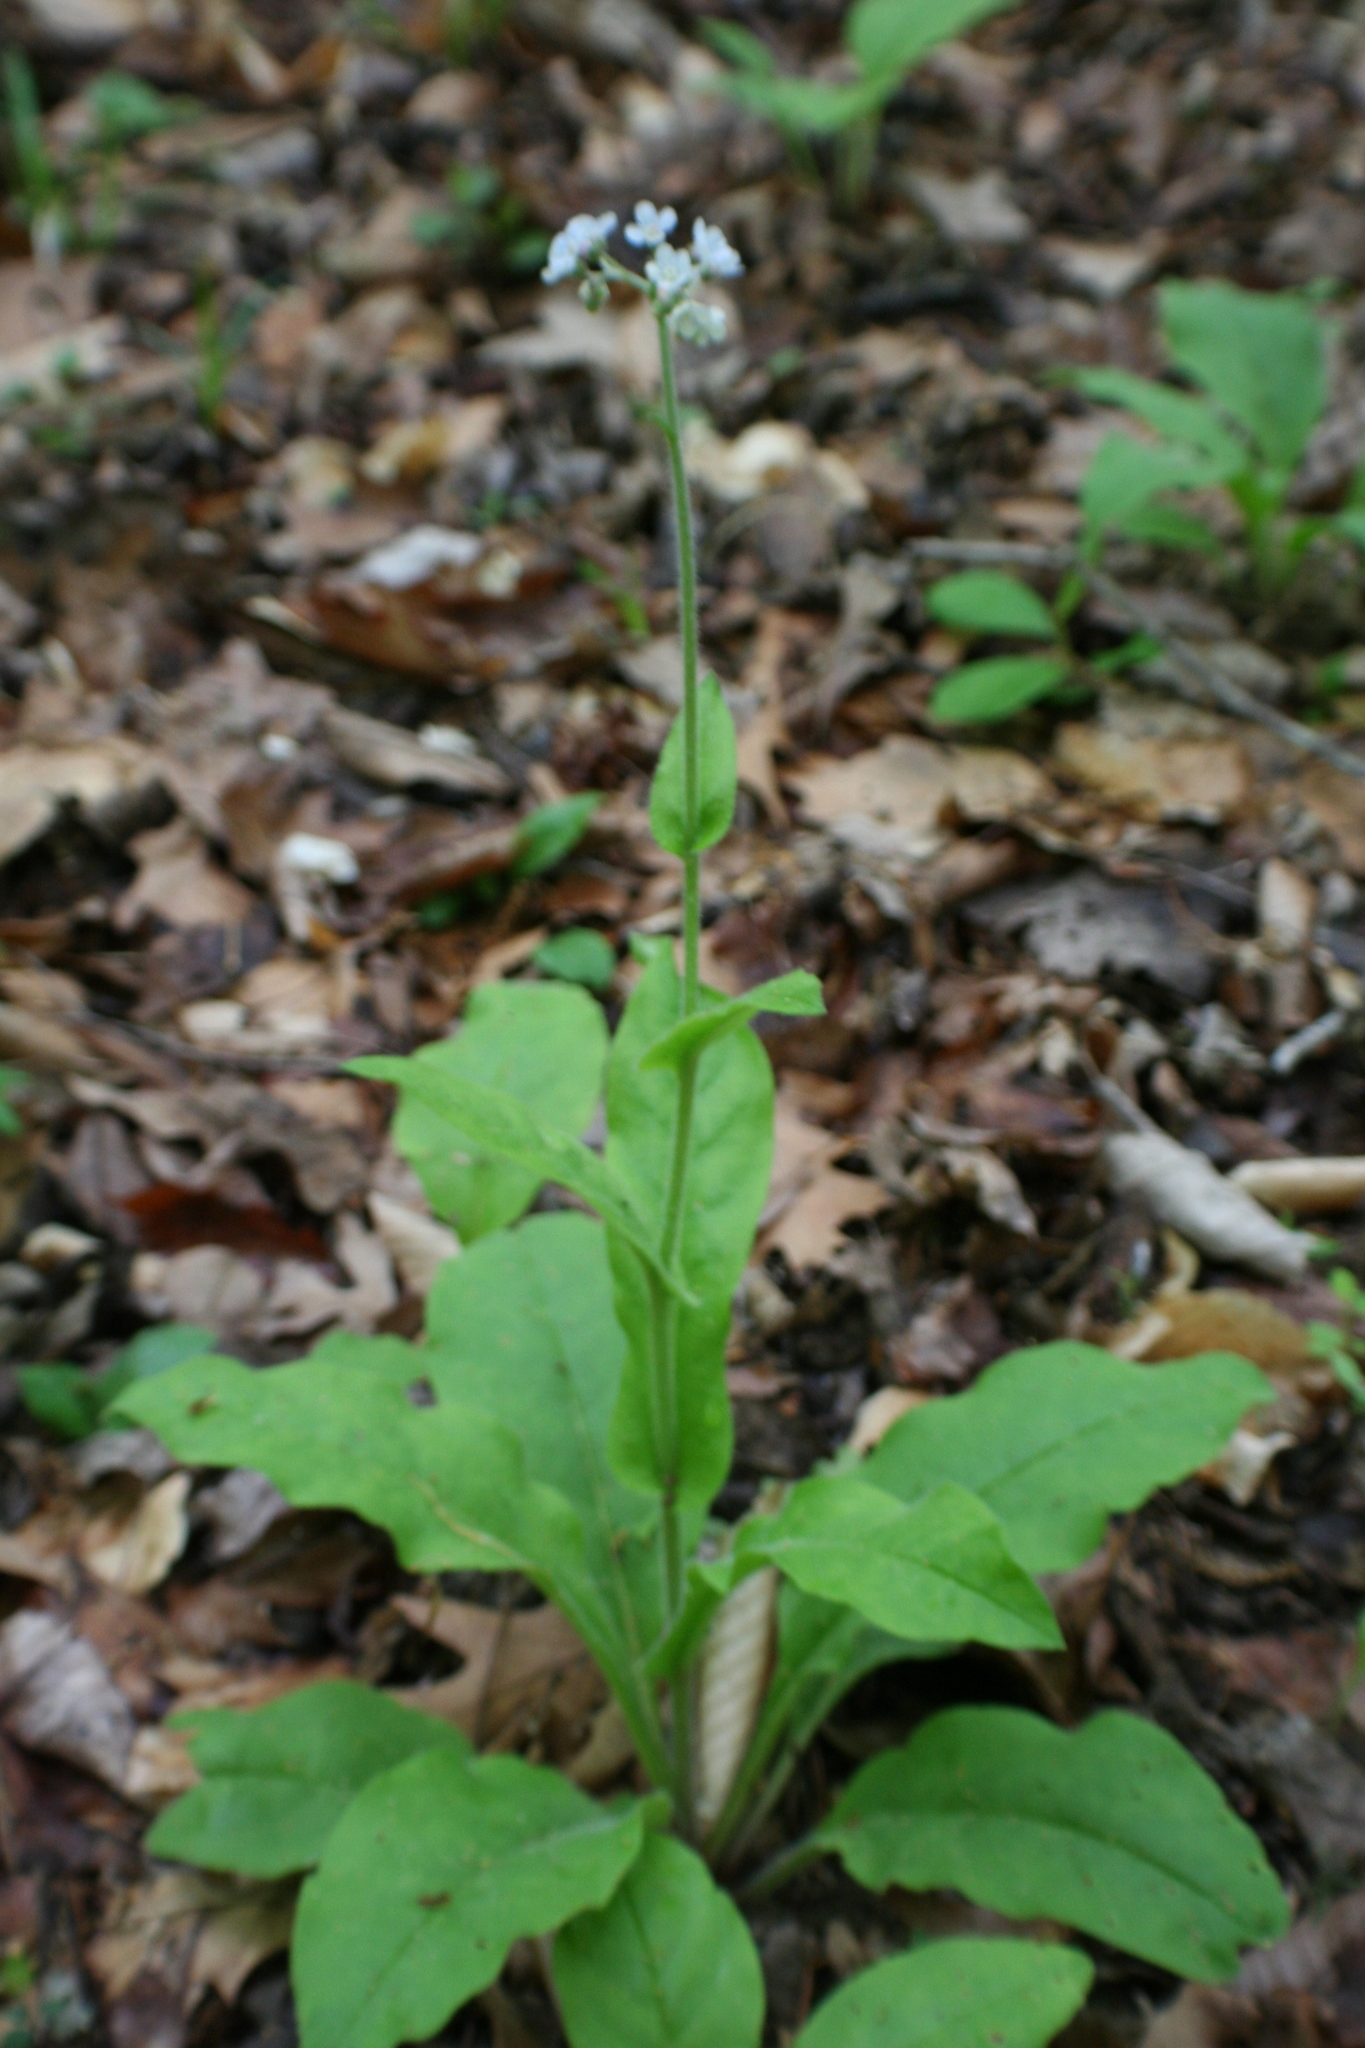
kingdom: Plantae
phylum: Tracheophyta
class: Magnoliopsida
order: Boraginales
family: Boraginaceae
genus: Andersonglossum
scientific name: Andersonglossum virginianum
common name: Wild comfrey
